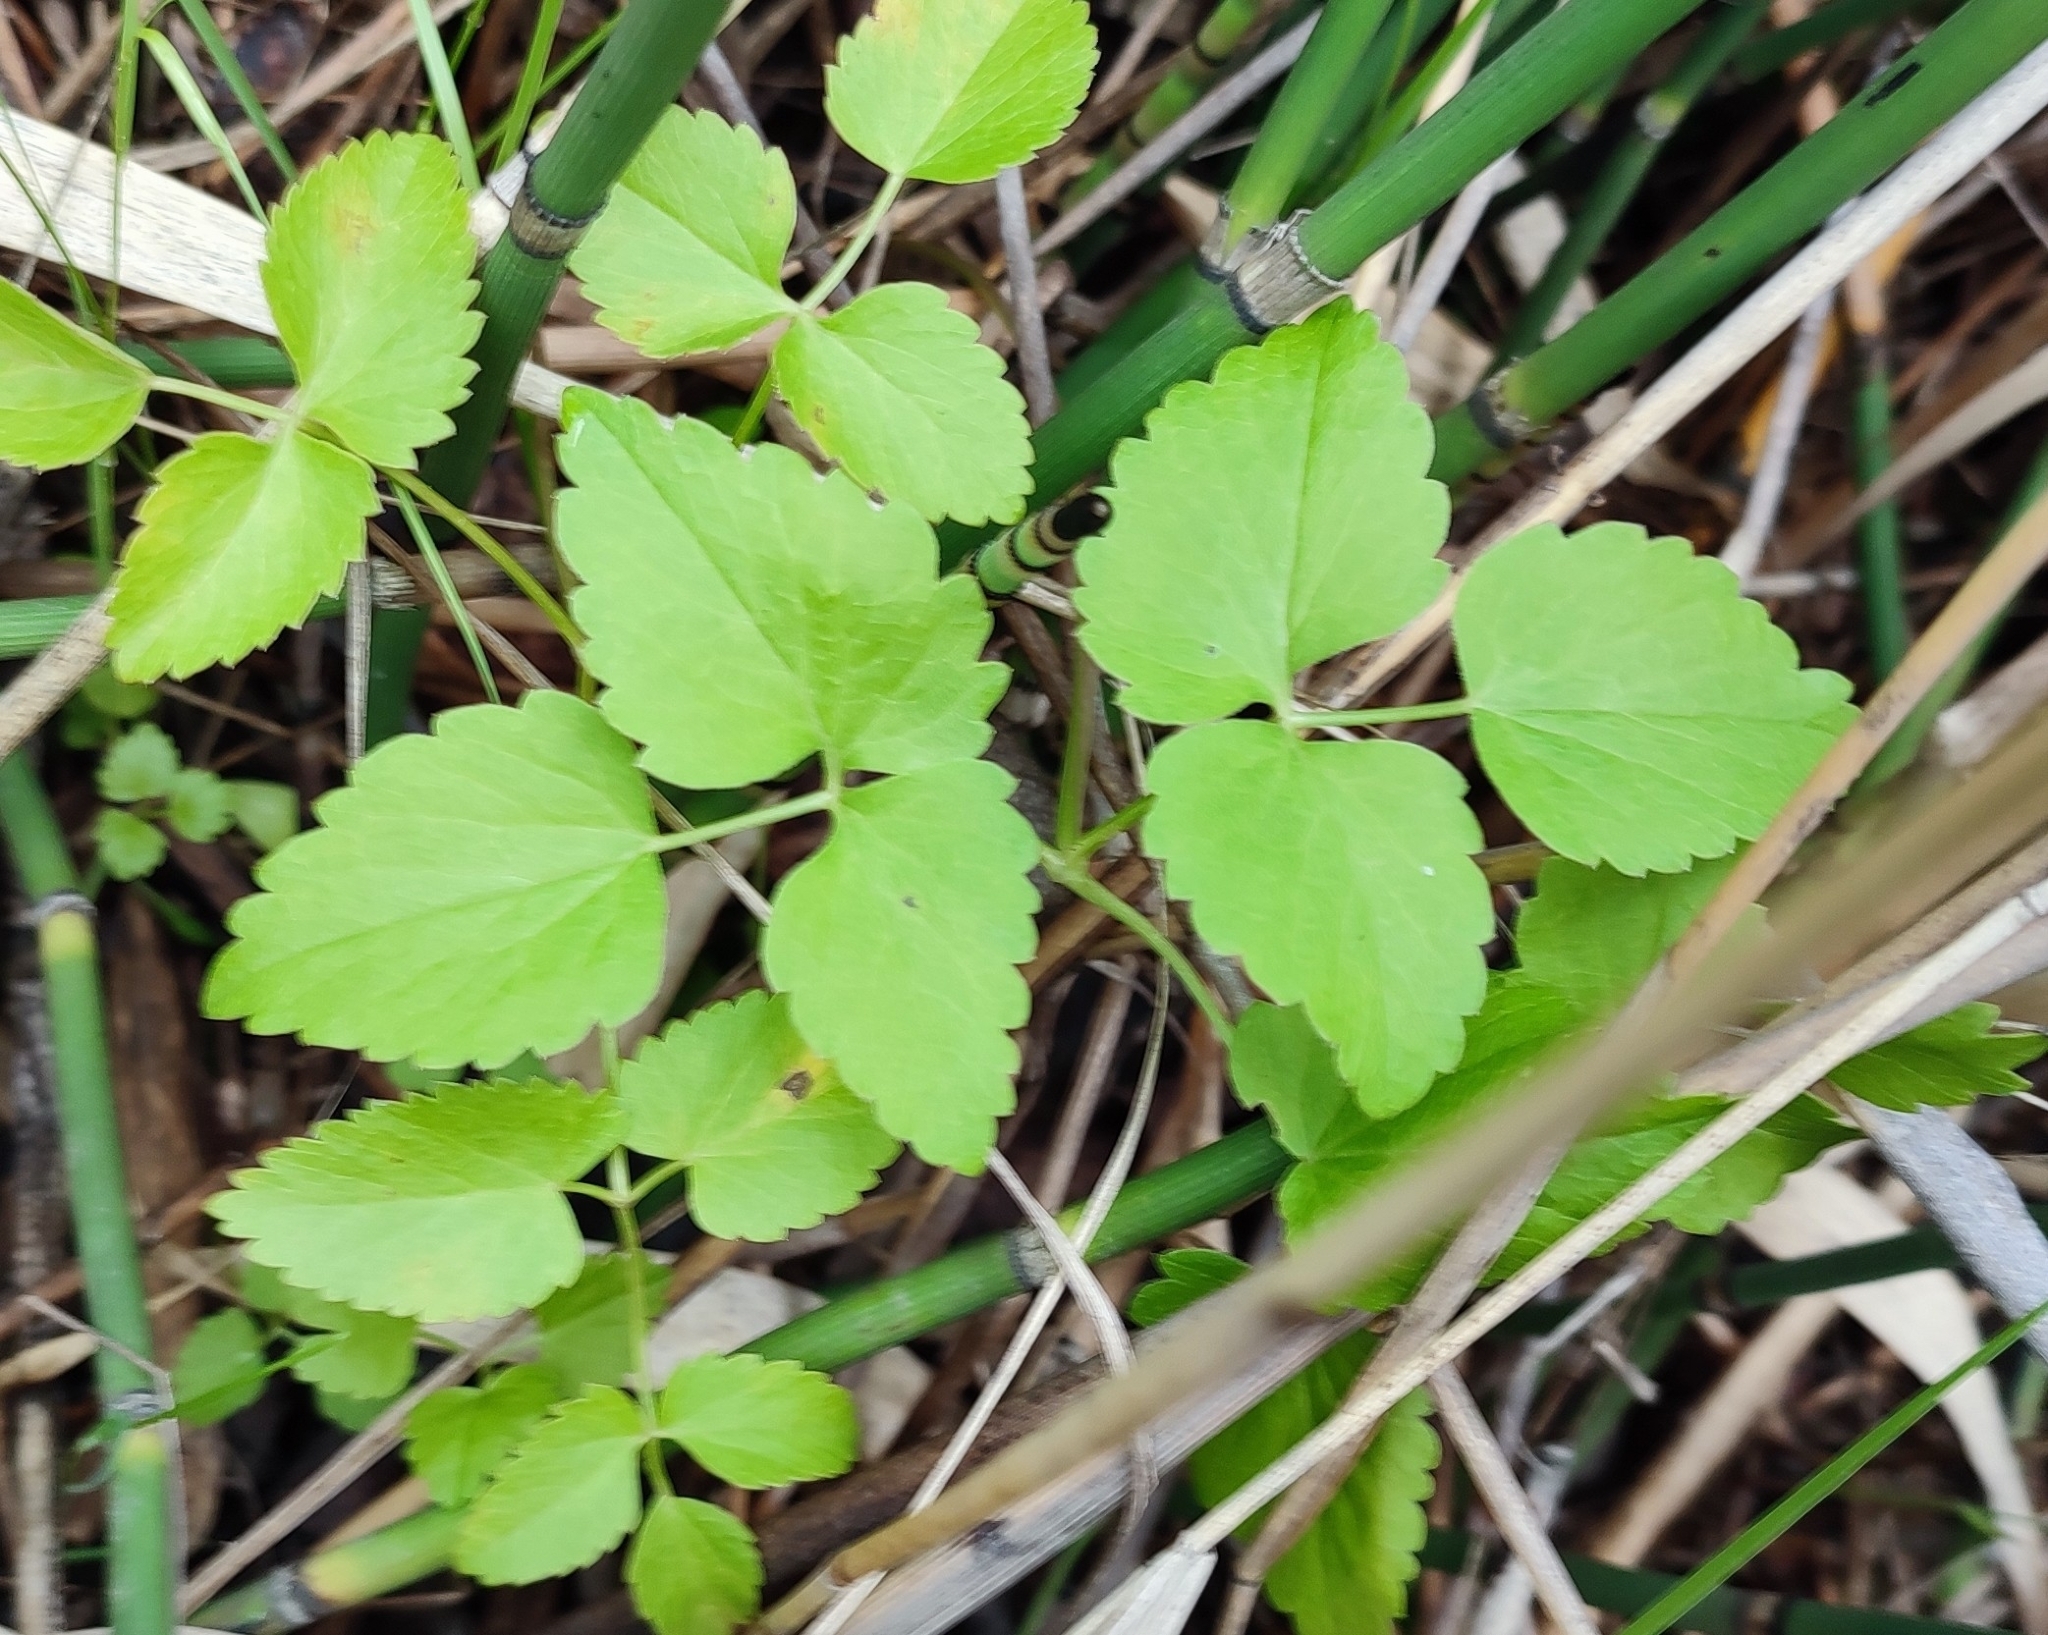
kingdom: Plantae
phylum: Tracheophyta
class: Magnoliopsida
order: Apiales
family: Apiaceae
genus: Ostericum
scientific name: Ostericum palustre
